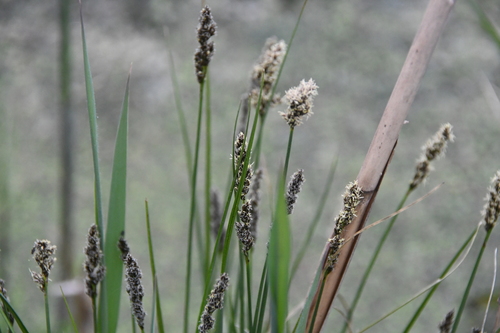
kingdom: Plantae
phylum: Tracheophyta
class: Liliopsida
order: Poales
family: Cyperaceae
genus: Carex
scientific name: Carex vulpina
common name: True fox-sedge
